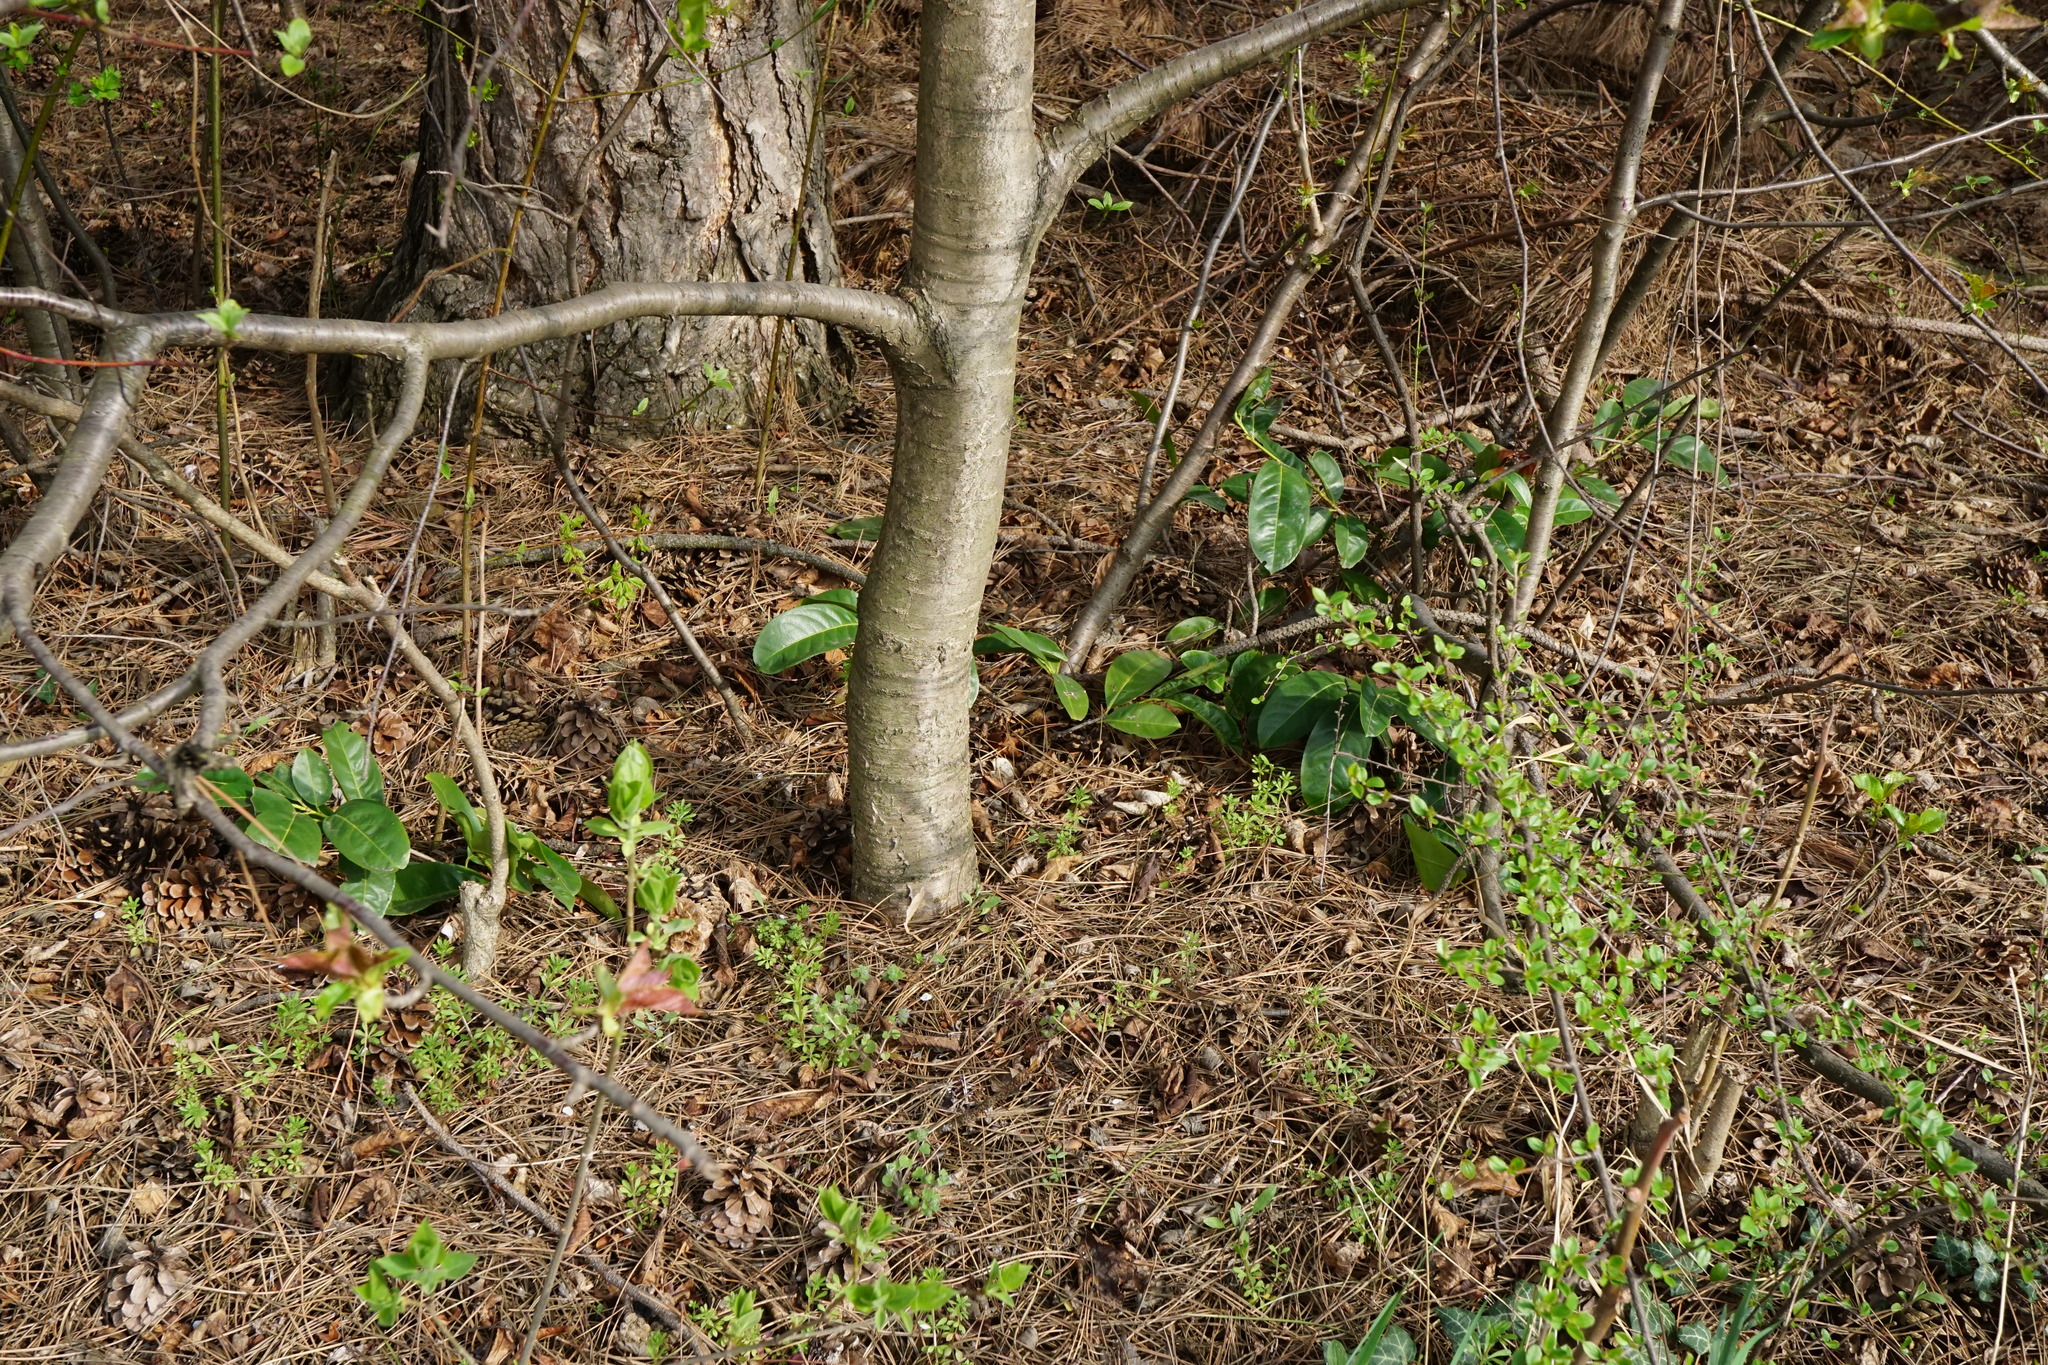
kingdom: Plantae
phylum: Tracheophyta
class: Magnoliopsida
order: Rosales
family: Rosaceae
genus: Prunus
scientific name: Prunus laurocerasus
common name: Cherry laurel
